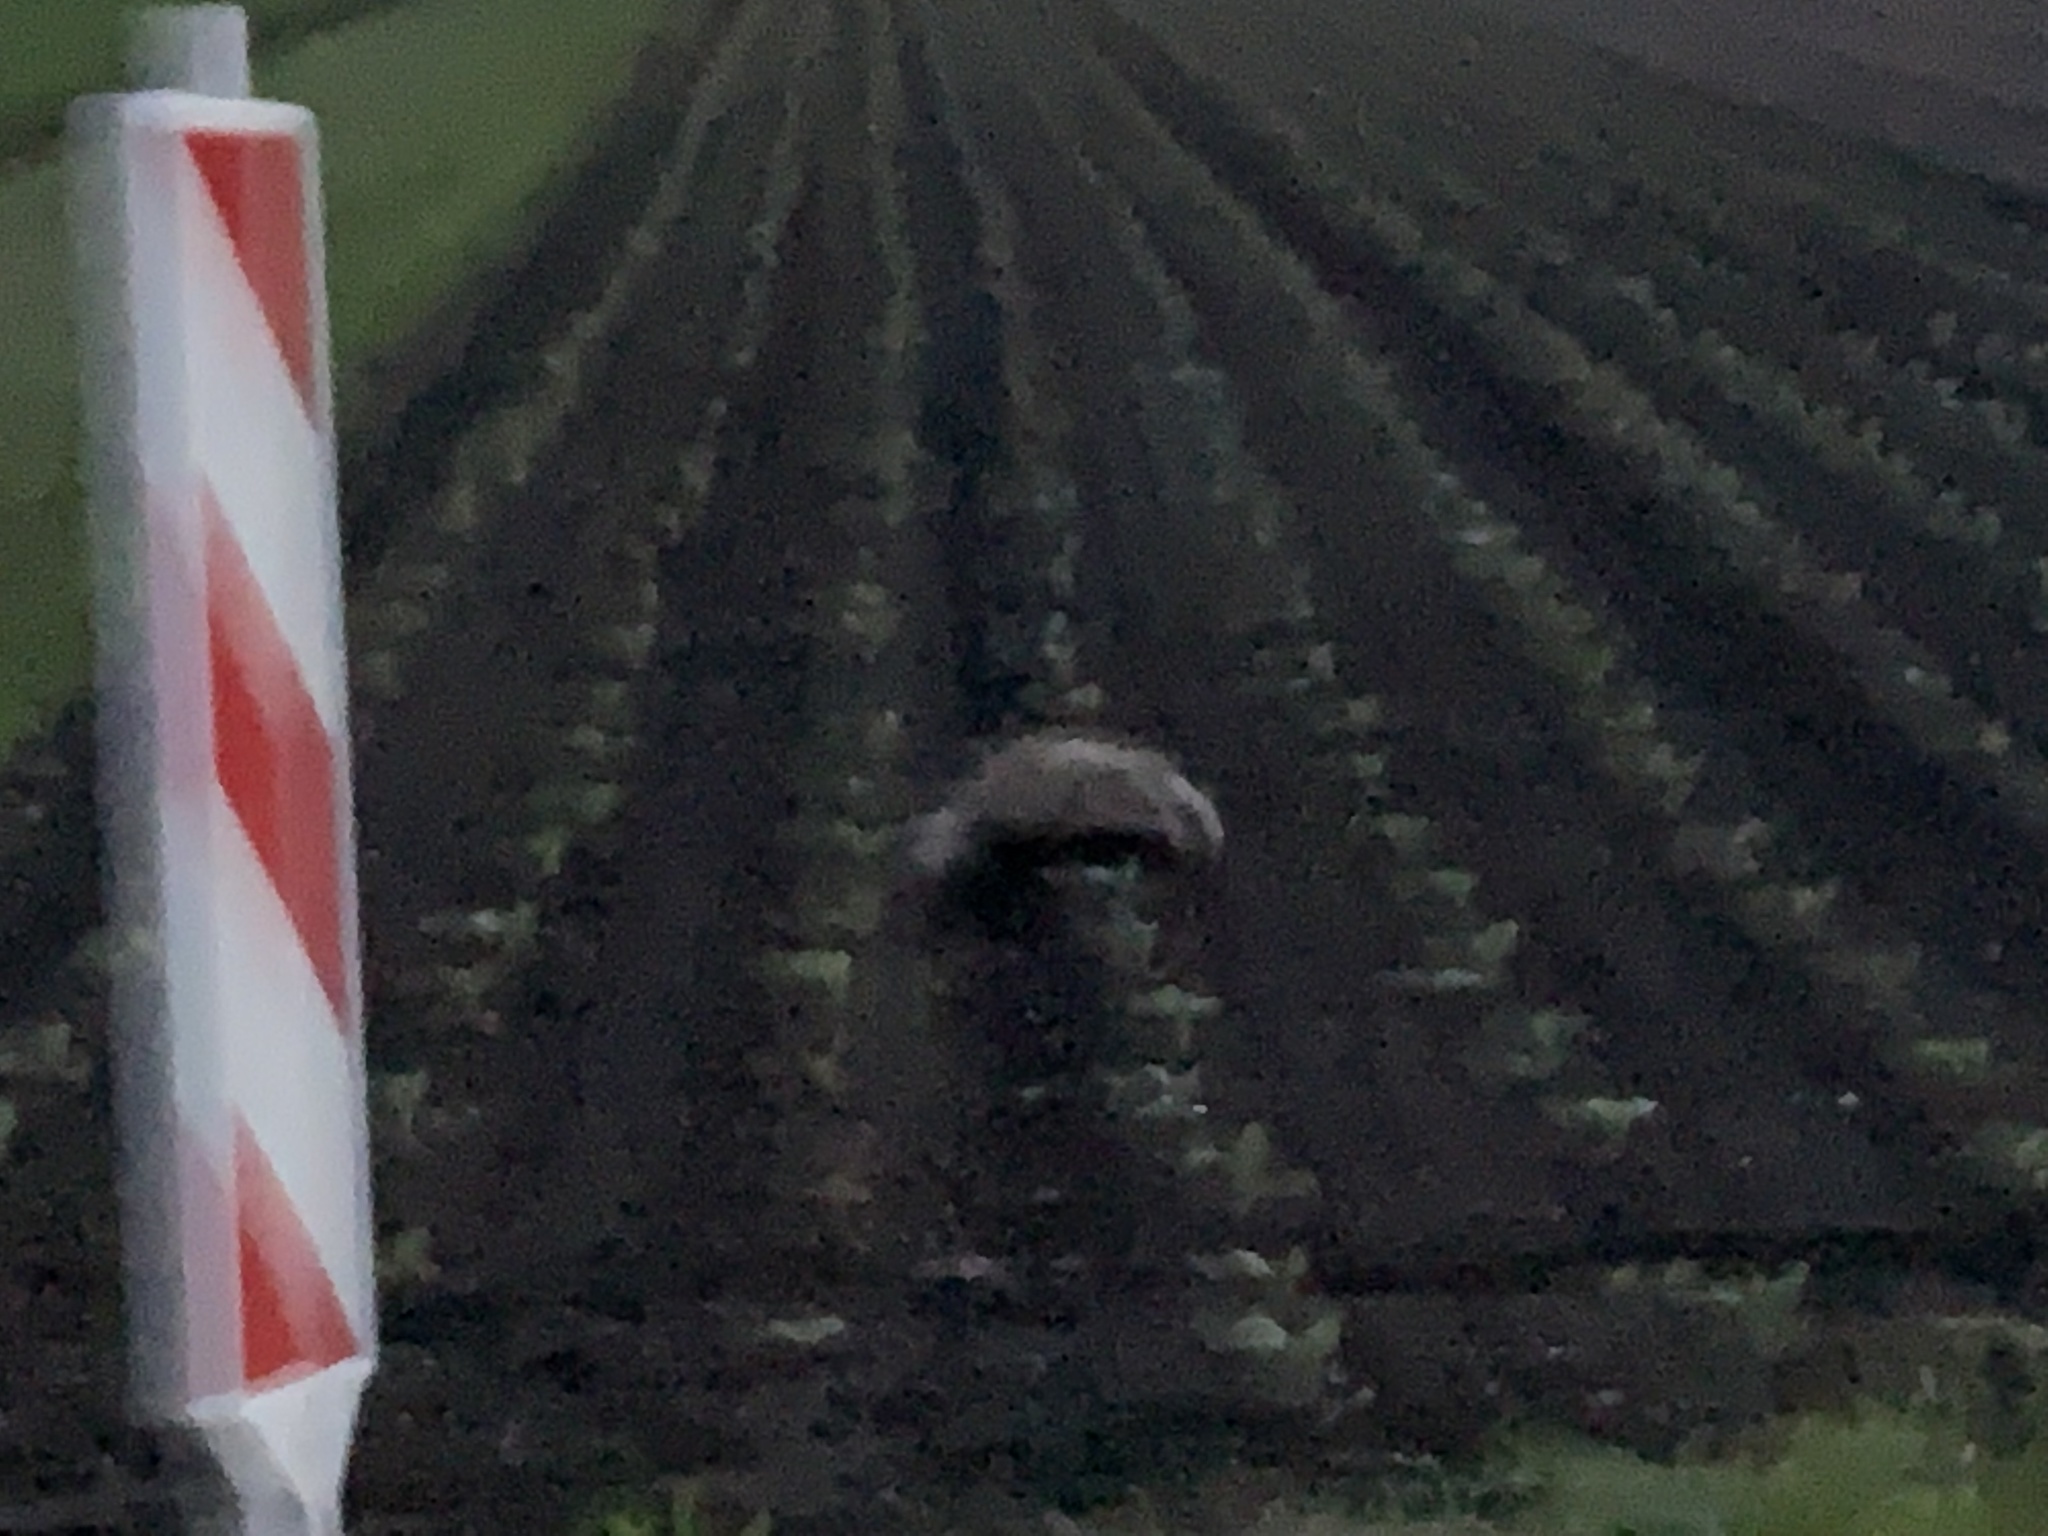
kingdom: Animalia
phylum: Chordata
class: Mammalia
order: Carnivora
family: Mustelidae
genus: Meles
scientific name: Meles meles
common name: Eurasian badger
